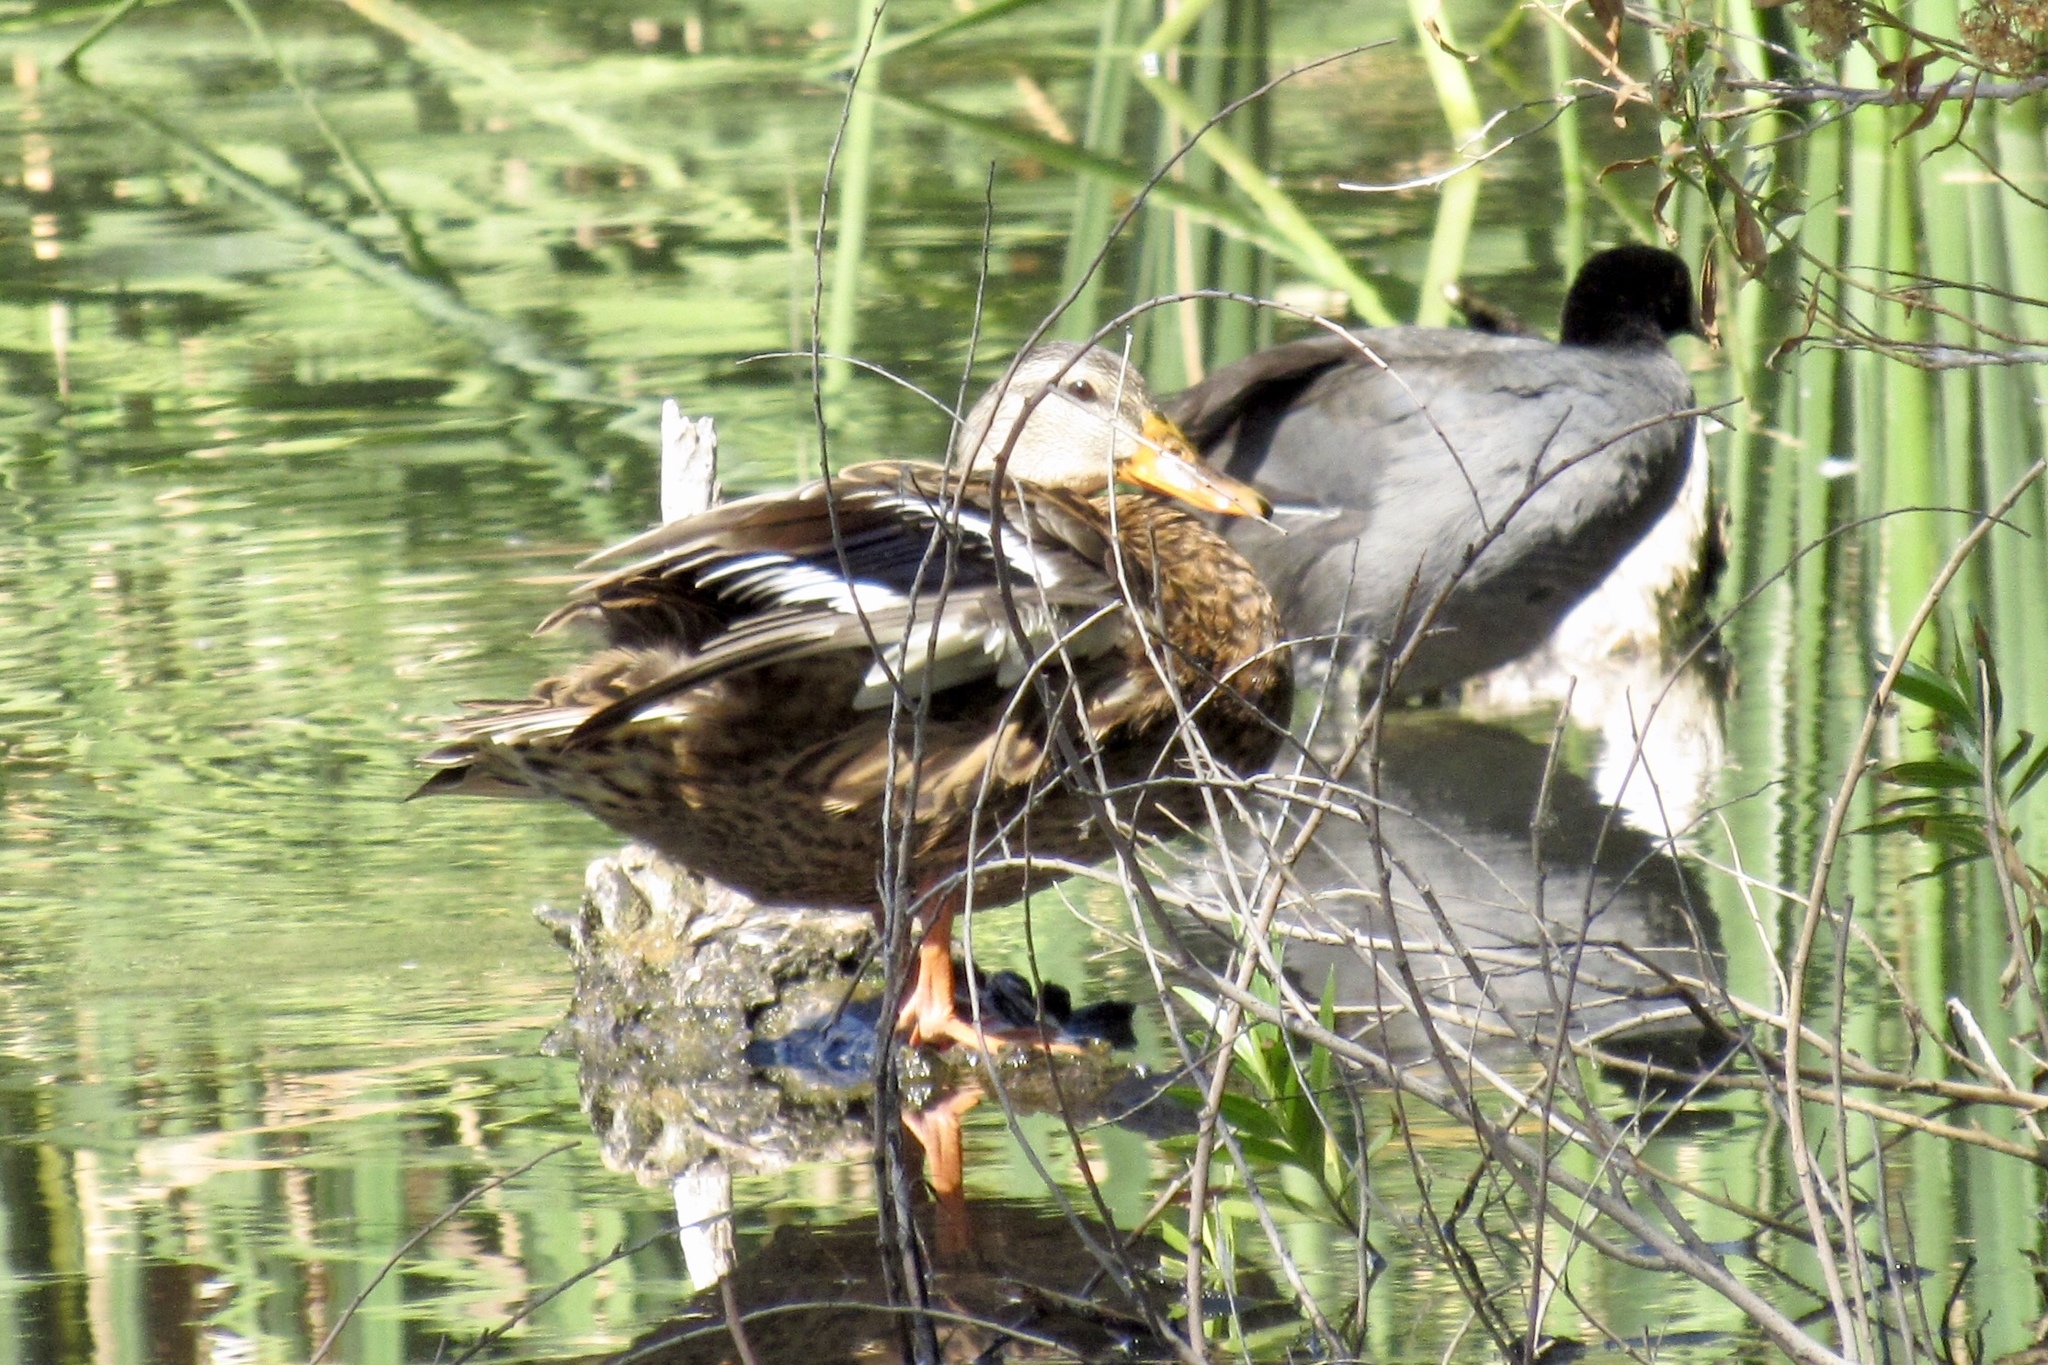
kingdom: Animalia
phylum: Chordata
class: Aves
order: Anseriformes
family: Anatidae
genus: Anas
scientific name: Anas platyrhynchos
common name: Mallard
